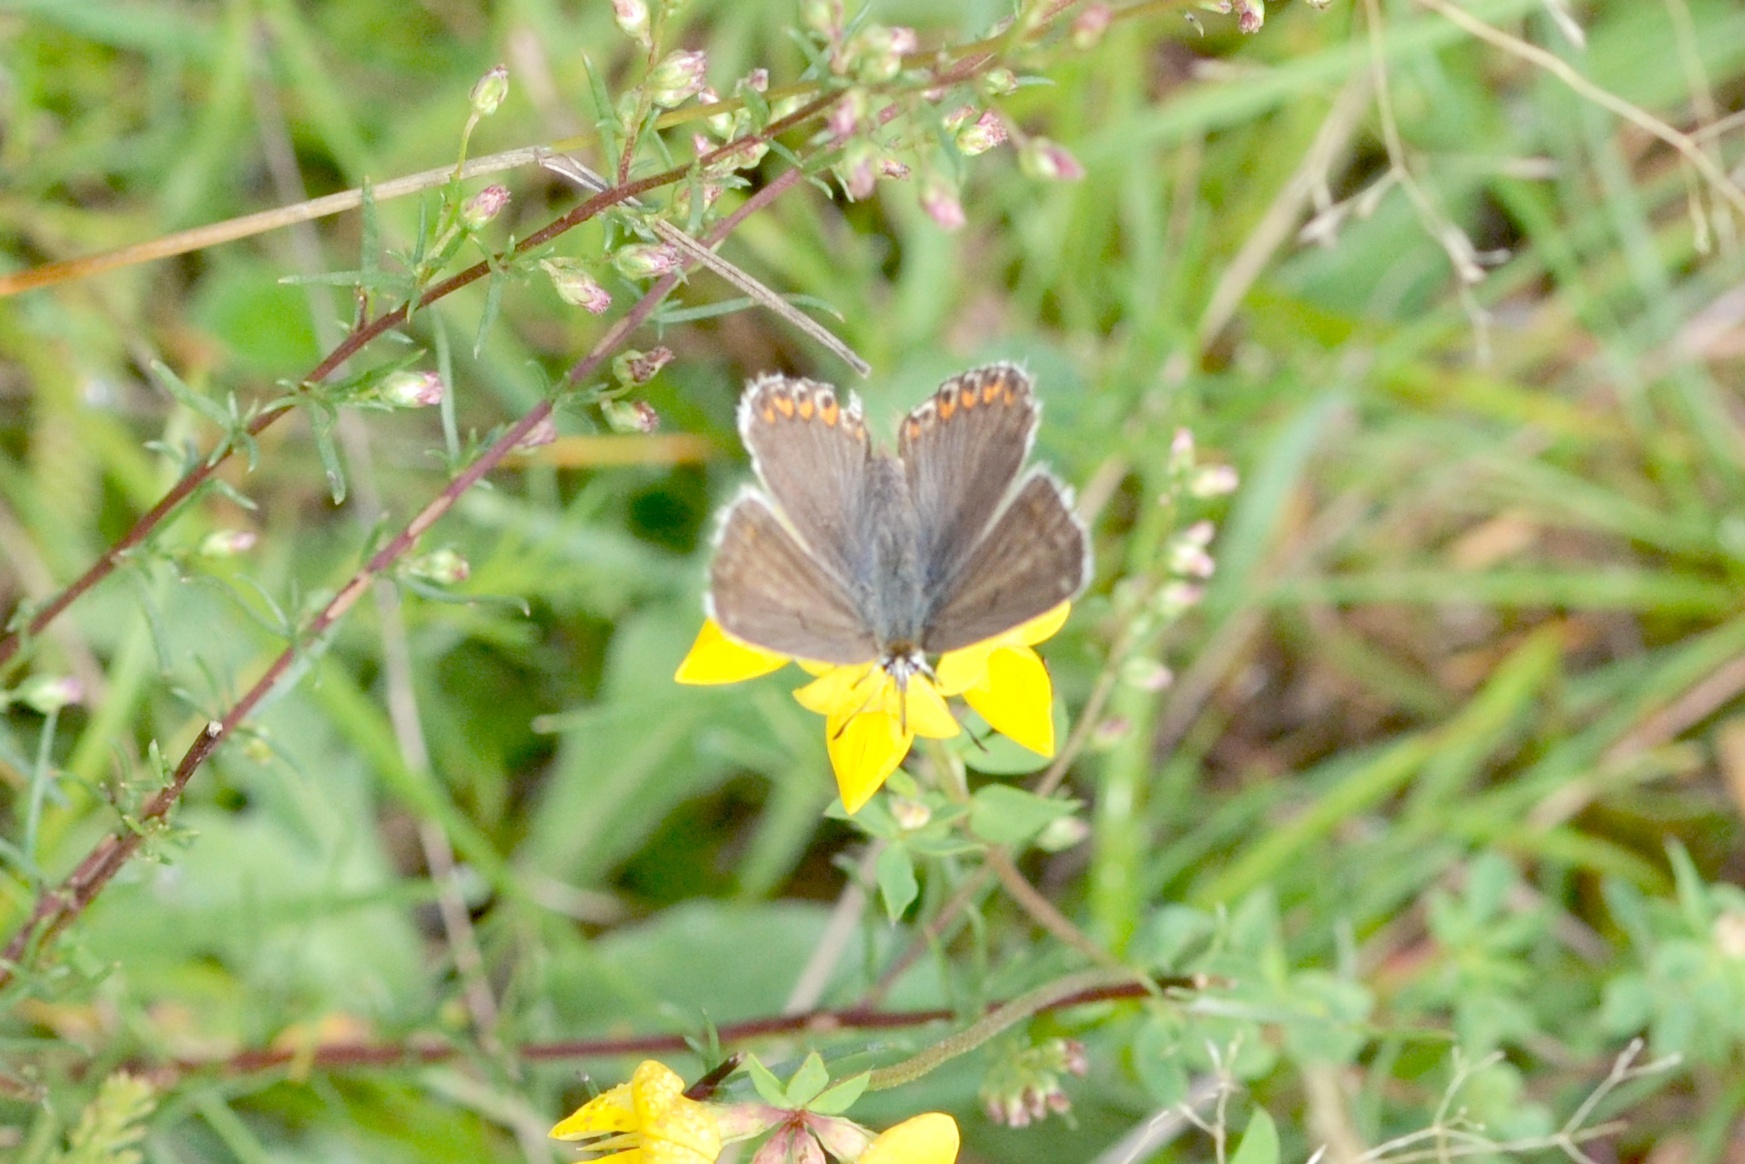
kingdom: Animalia
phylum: Arthropoda
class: Insecta
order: Lepidoptera
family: Lycaenidae
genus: Lysandra
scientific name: Lysandra bellargus
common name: Adonis blue
